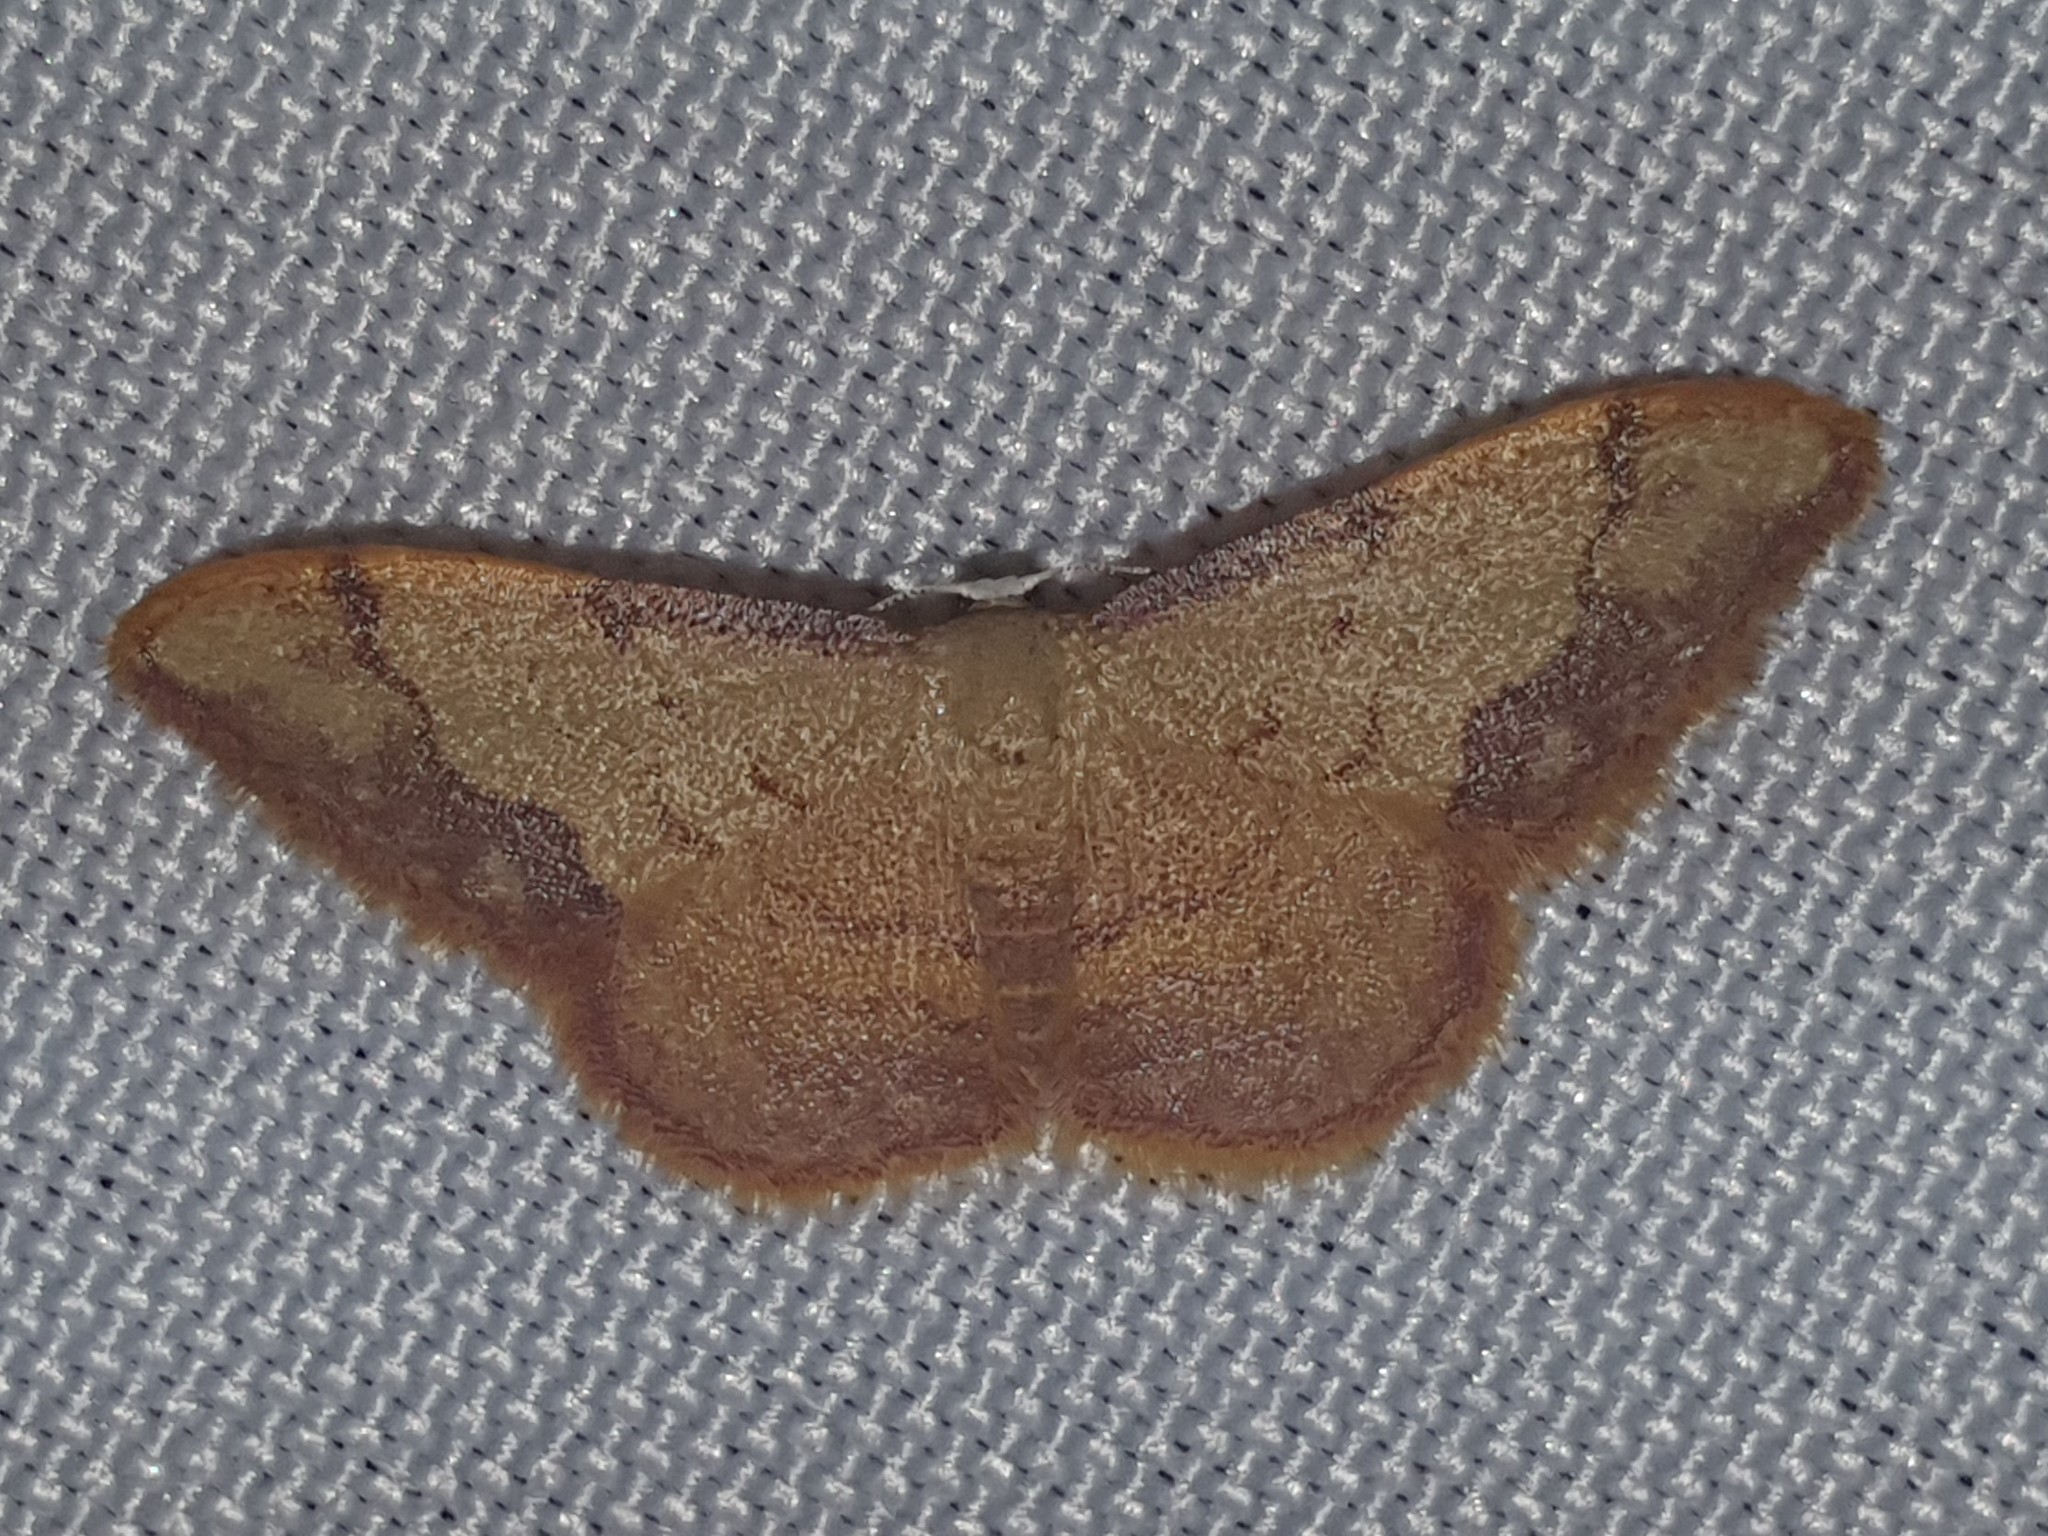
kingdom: Animalia
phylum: Arthropoda
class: Insecta
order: Lepidoptera
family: Geometridae
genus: Idaea
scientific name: Idaea ostrinaria
